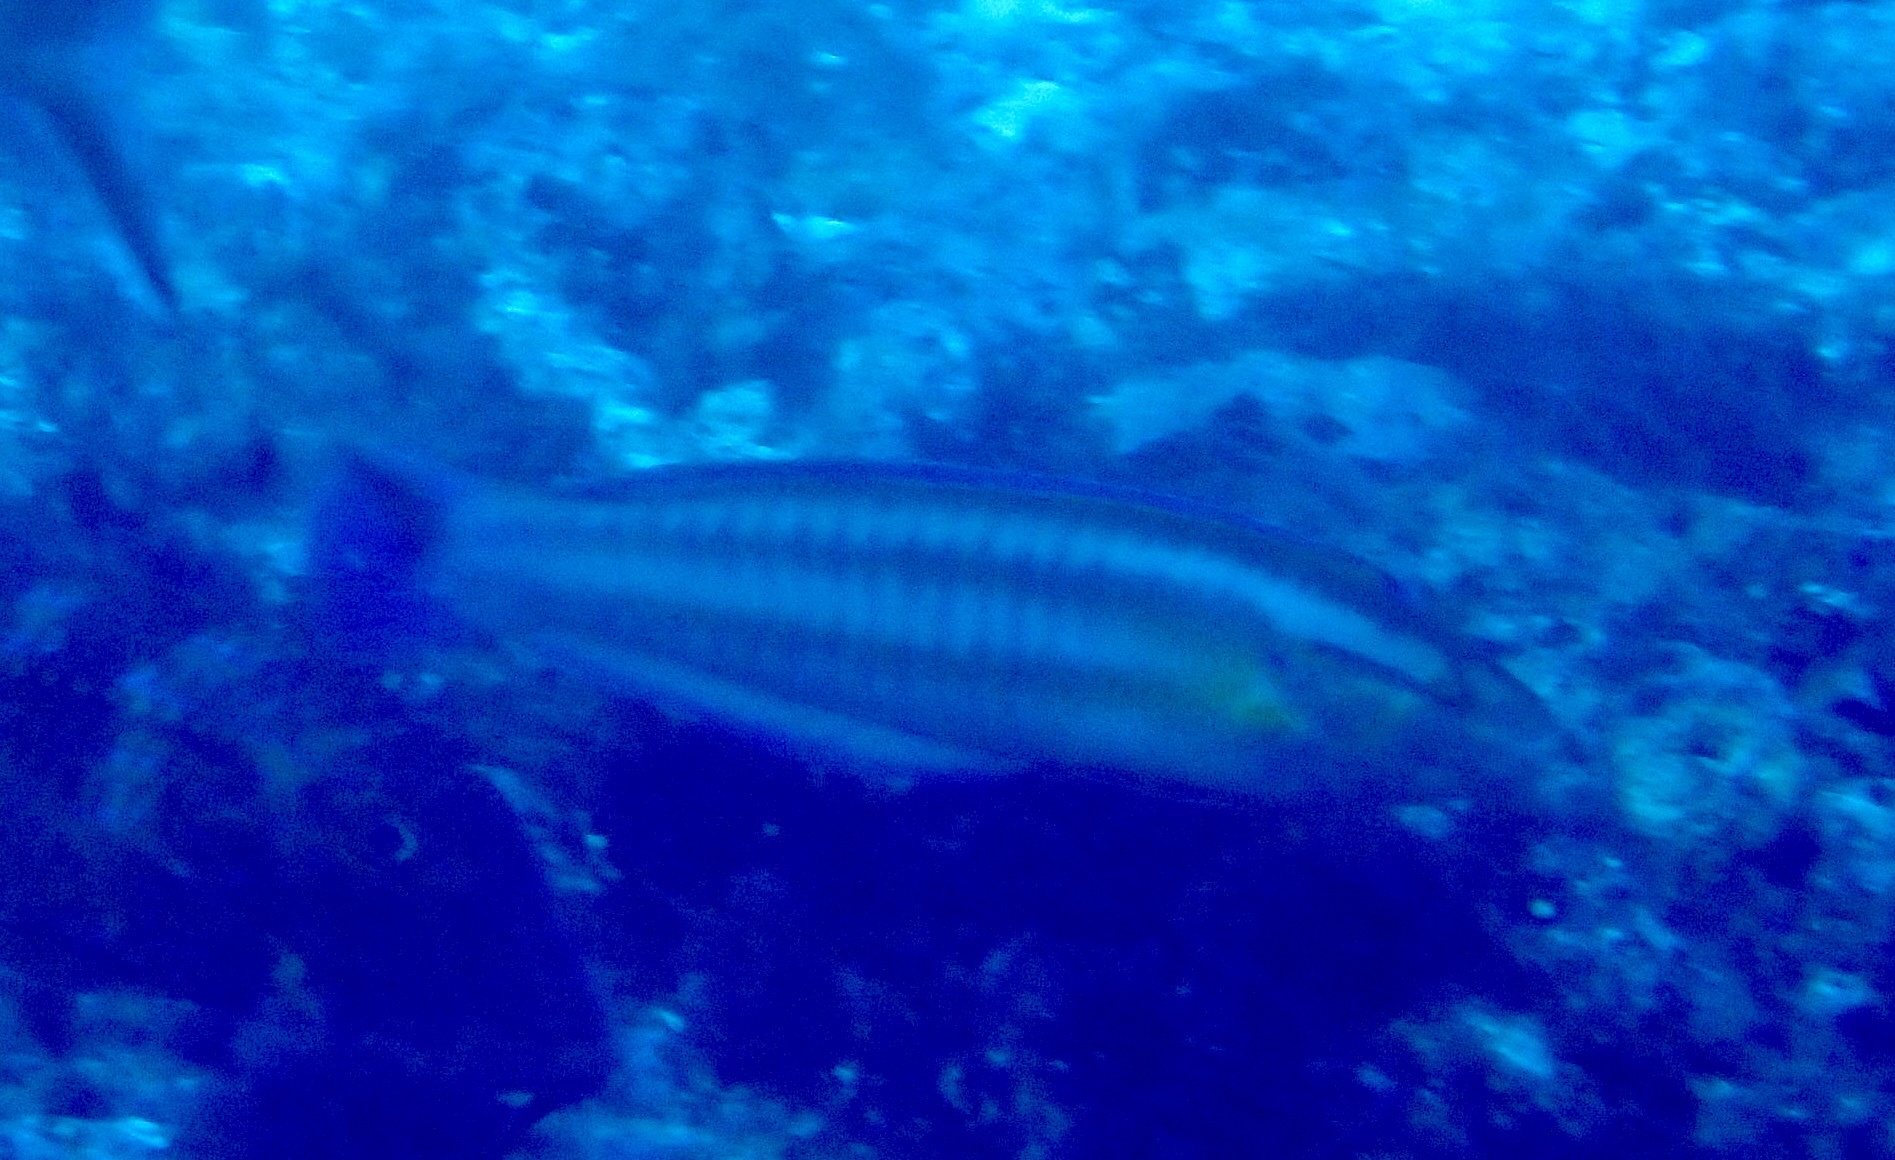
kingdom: Animalia
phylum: Chordata
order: Perciformes
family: Labridae
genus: Coris
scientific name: Coris atlantica
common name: Rainbow wrasse
